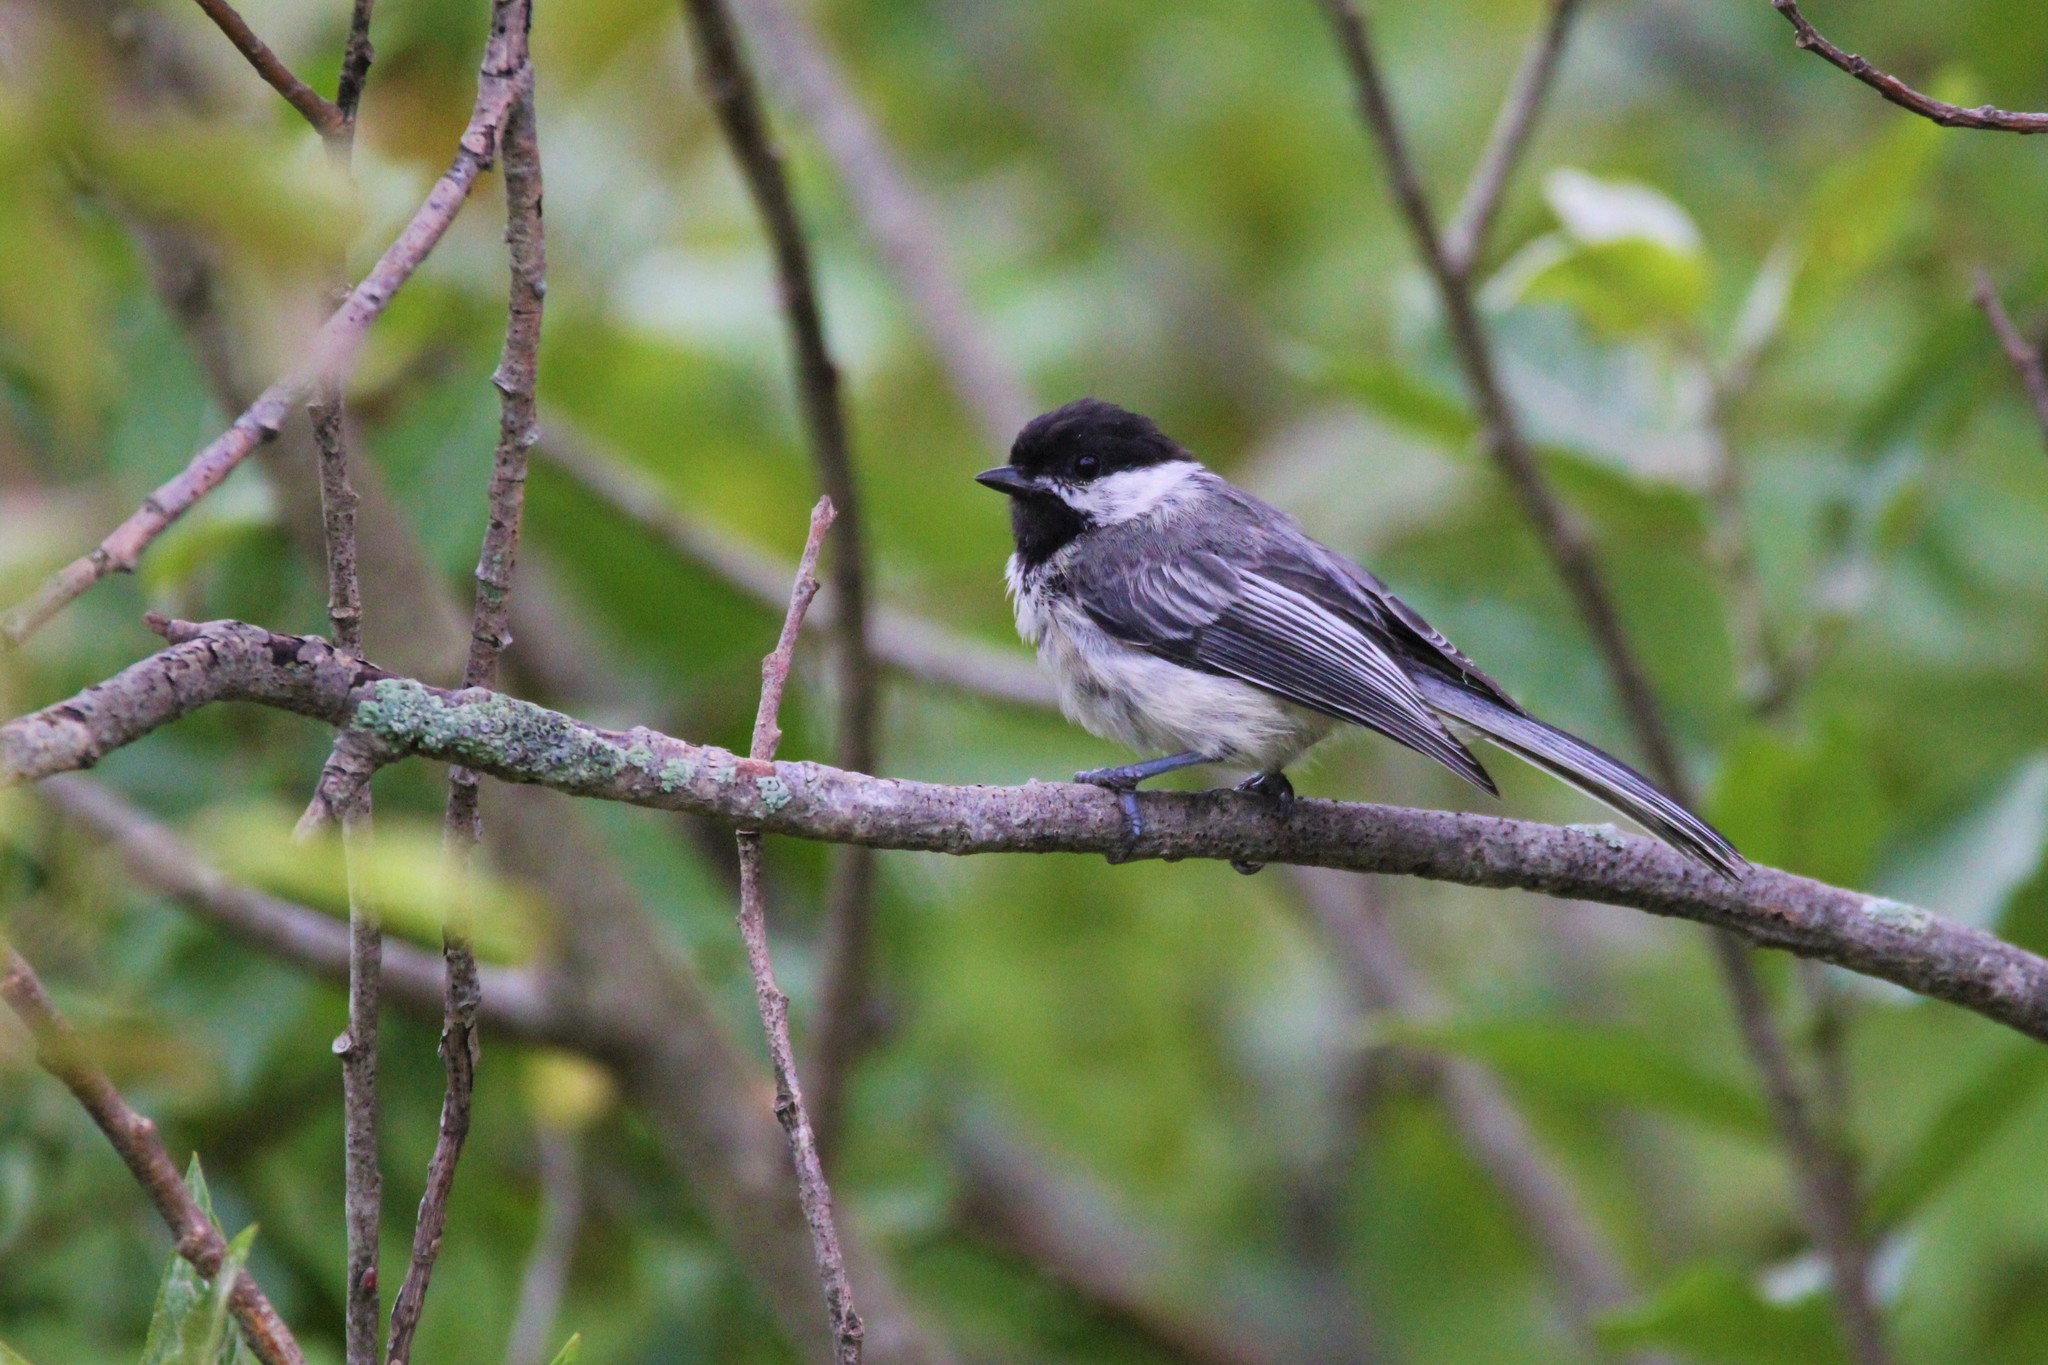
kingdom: Animalia
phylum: Chordata
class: Aves
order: Passeriformes
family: Paridae
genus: Poecile
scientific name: Poecile atricapillus
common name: Black-capped chickadee
